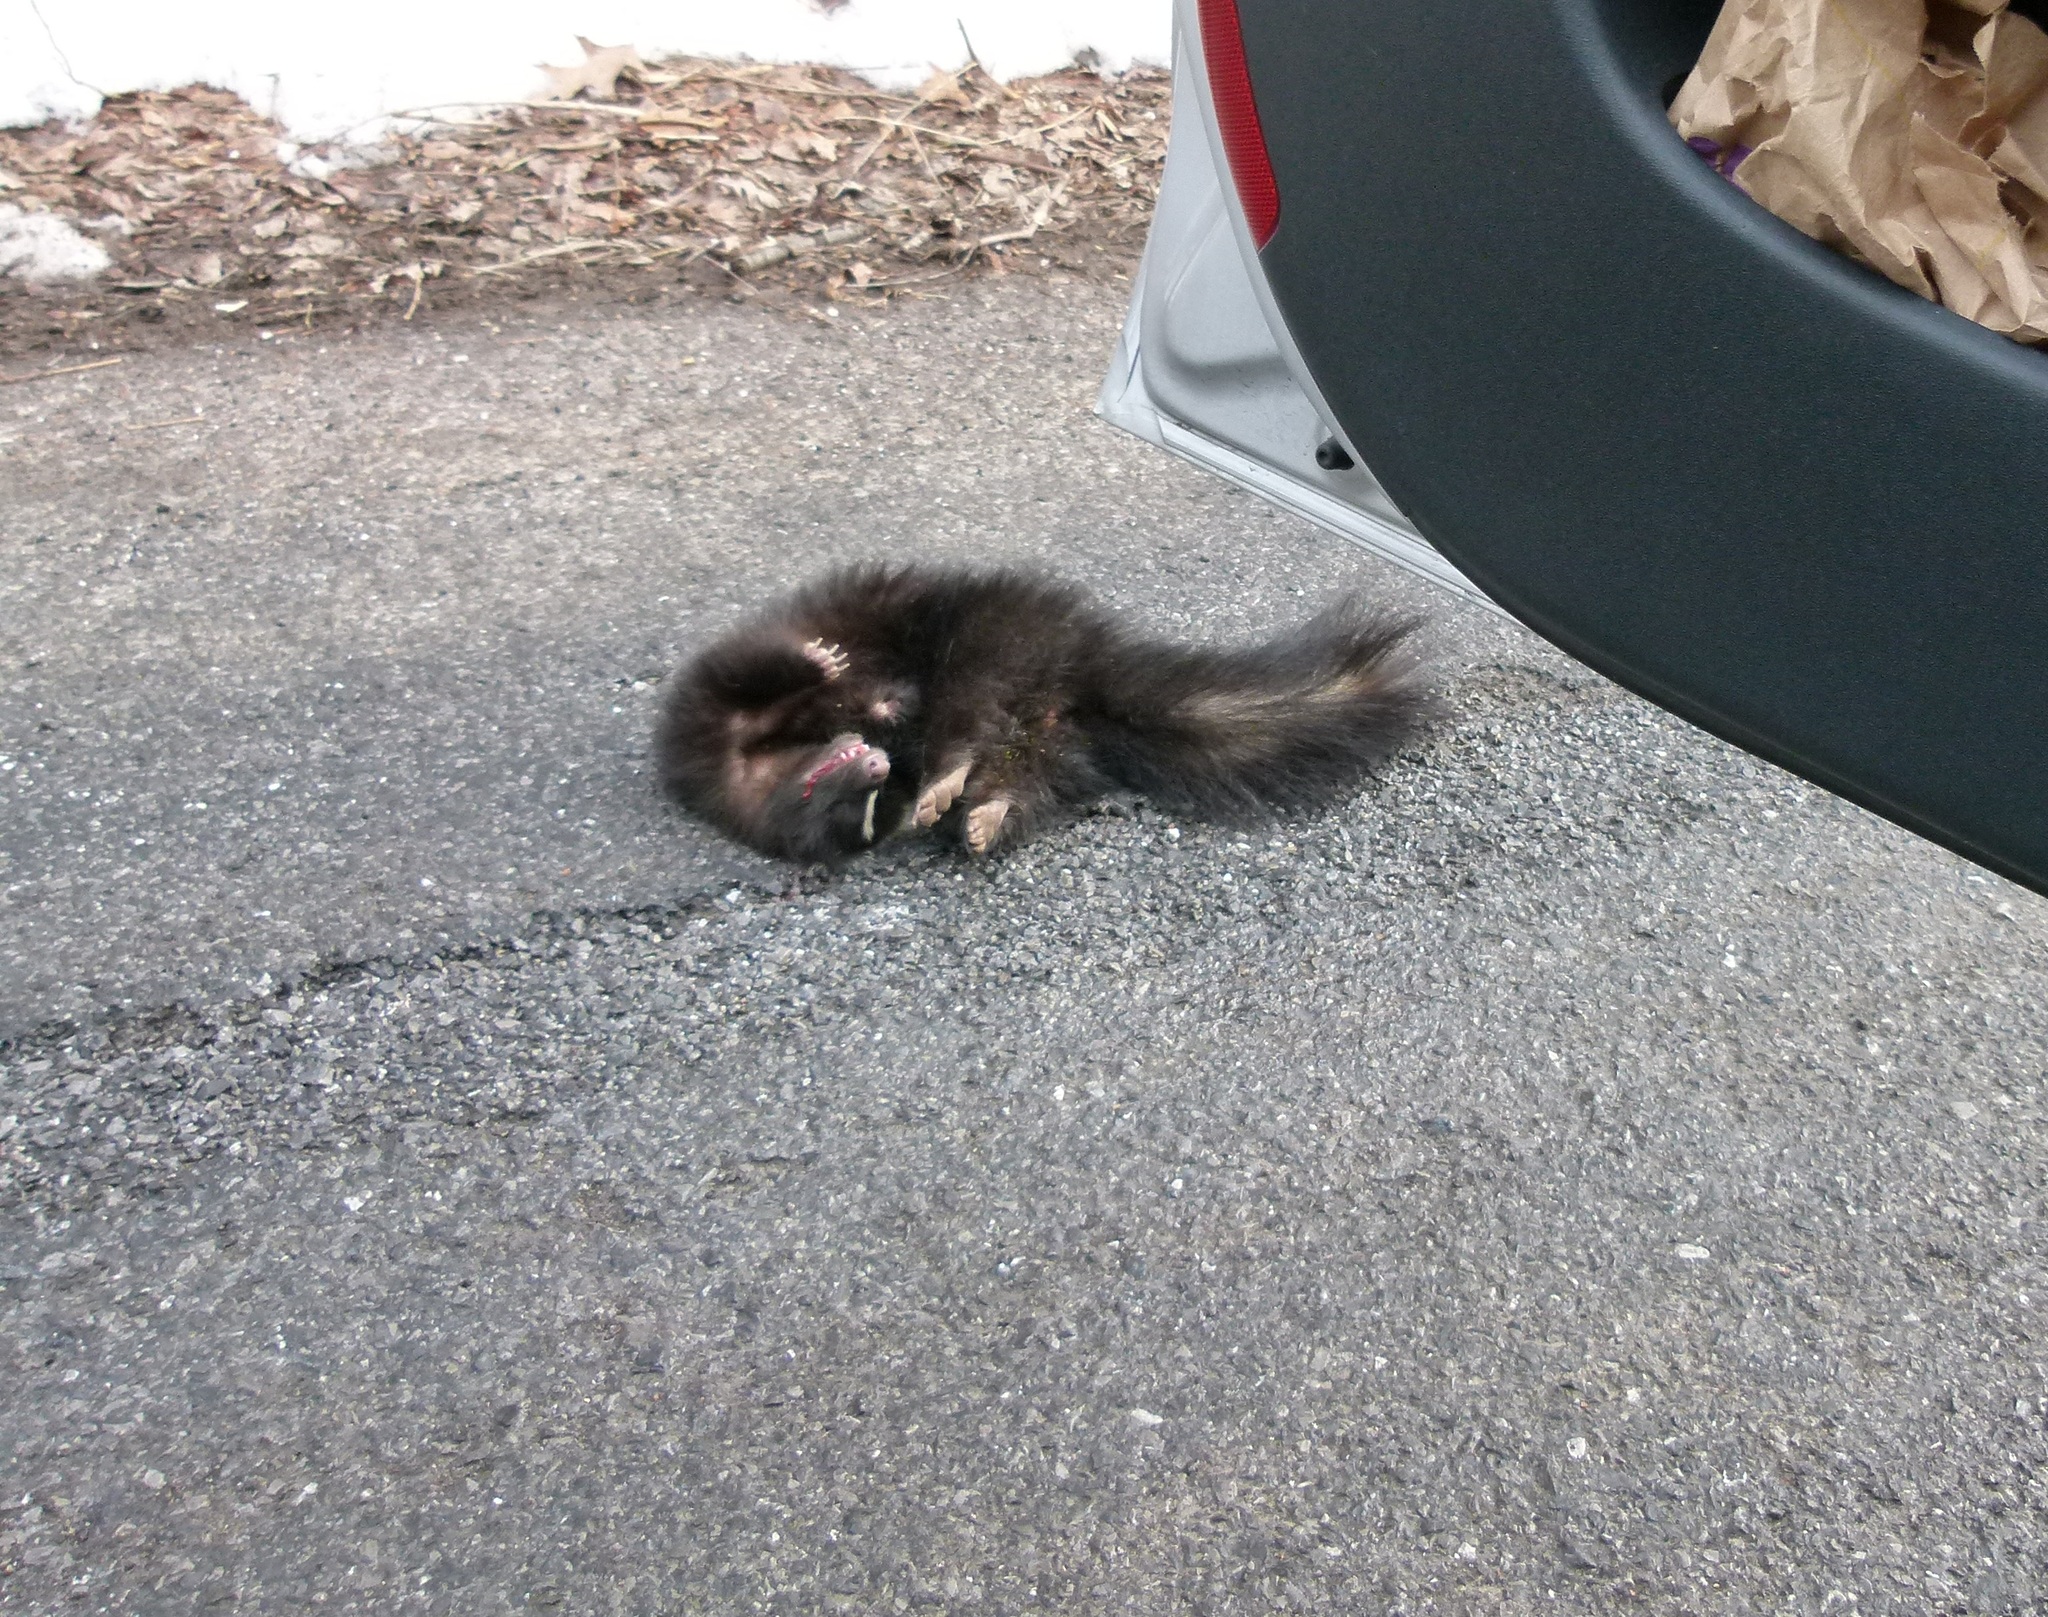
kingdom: Animalia
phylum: Chordata
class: Mammalia
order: Carnivora
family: Mephitidae
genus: Mephitis
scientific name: Mephitis mephitis
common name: Striped skunk
